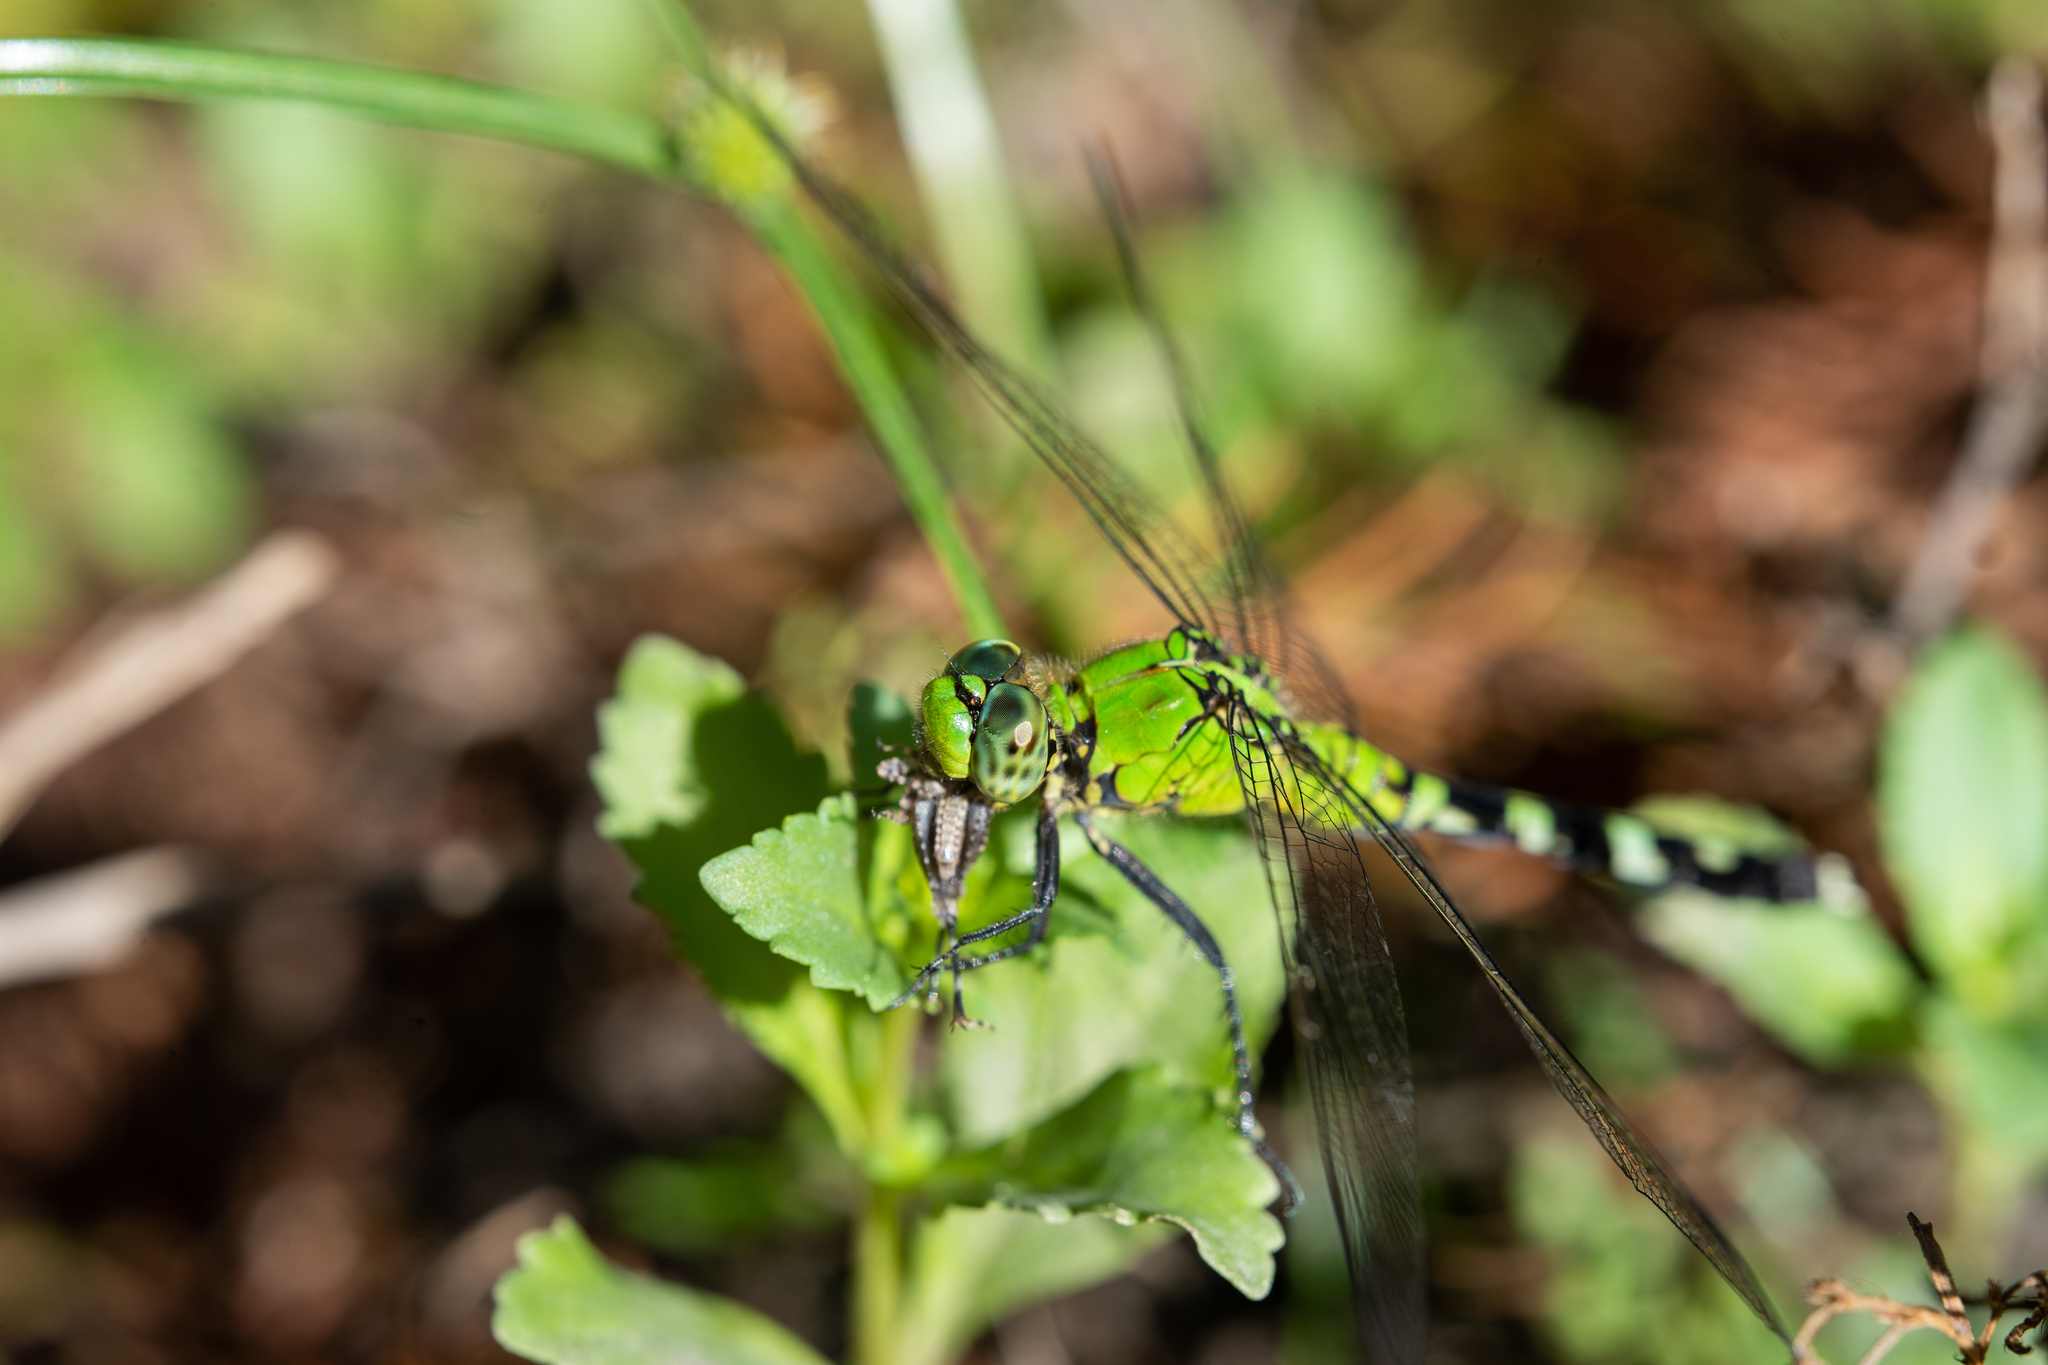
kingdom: Animalia
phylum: Arthropoda
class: Insecta
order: Odonata
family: Libellulidae
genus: Erythemis
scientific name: Erythemis simplicicollis
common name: Eastern pondhawk
